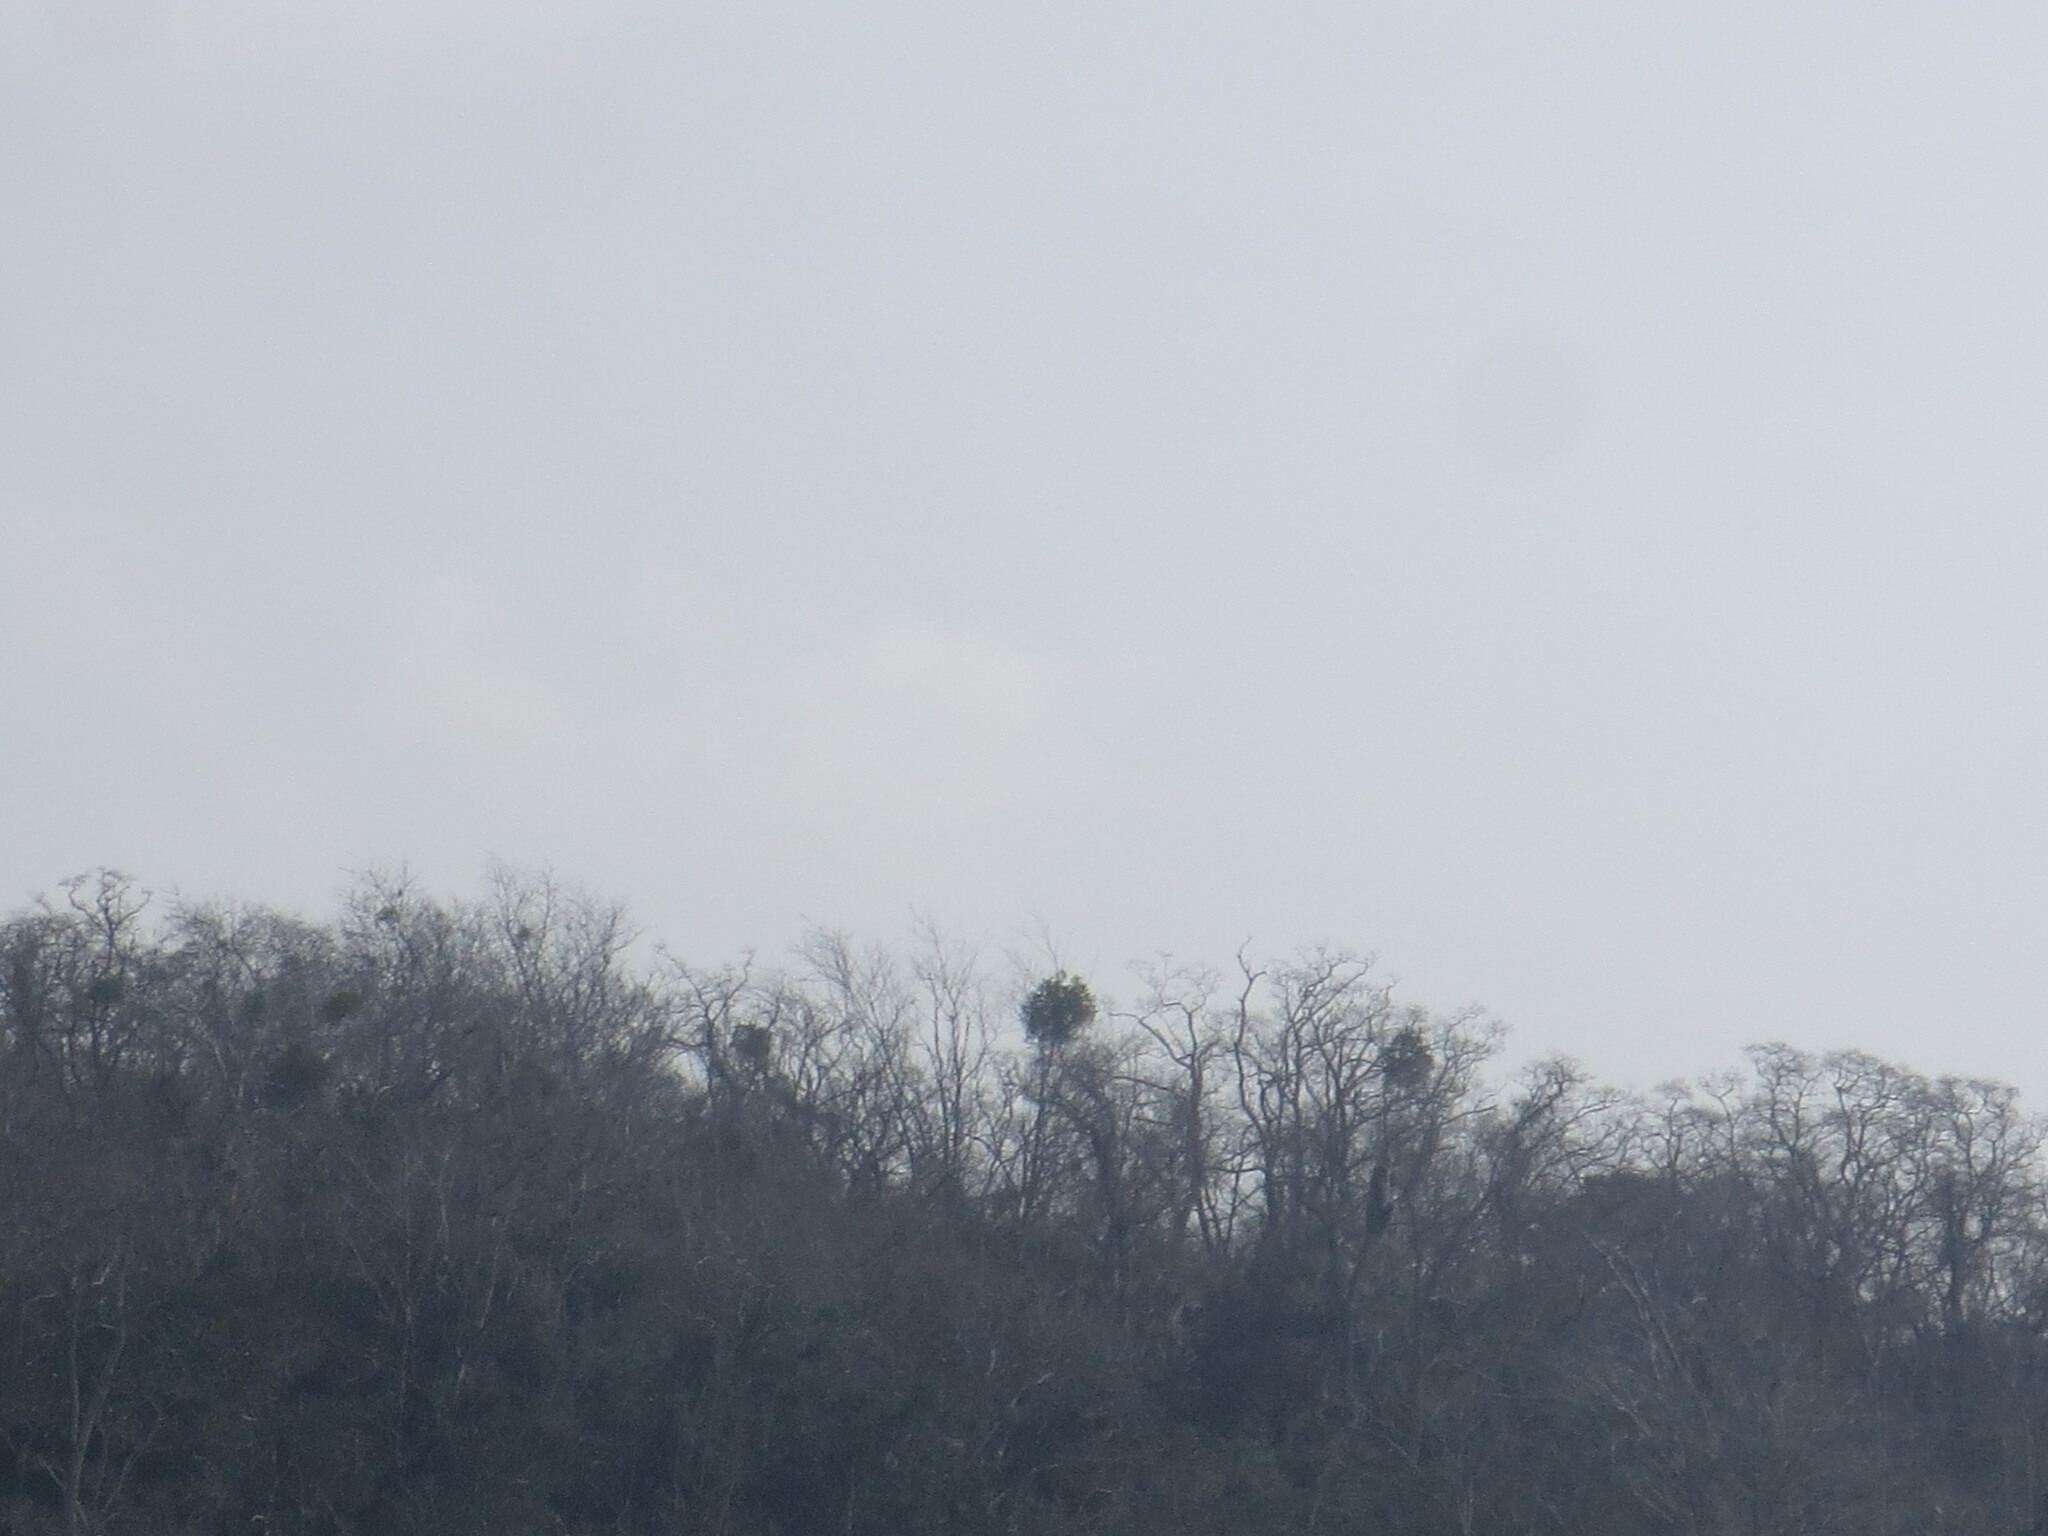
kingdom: Plantae
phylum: Tracheophyta
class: Magnoliopsida
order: Santalales
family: Viscaceae
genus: Phoradendron
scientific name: Phoradendron leucarpum
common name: Pacific mistletoe
